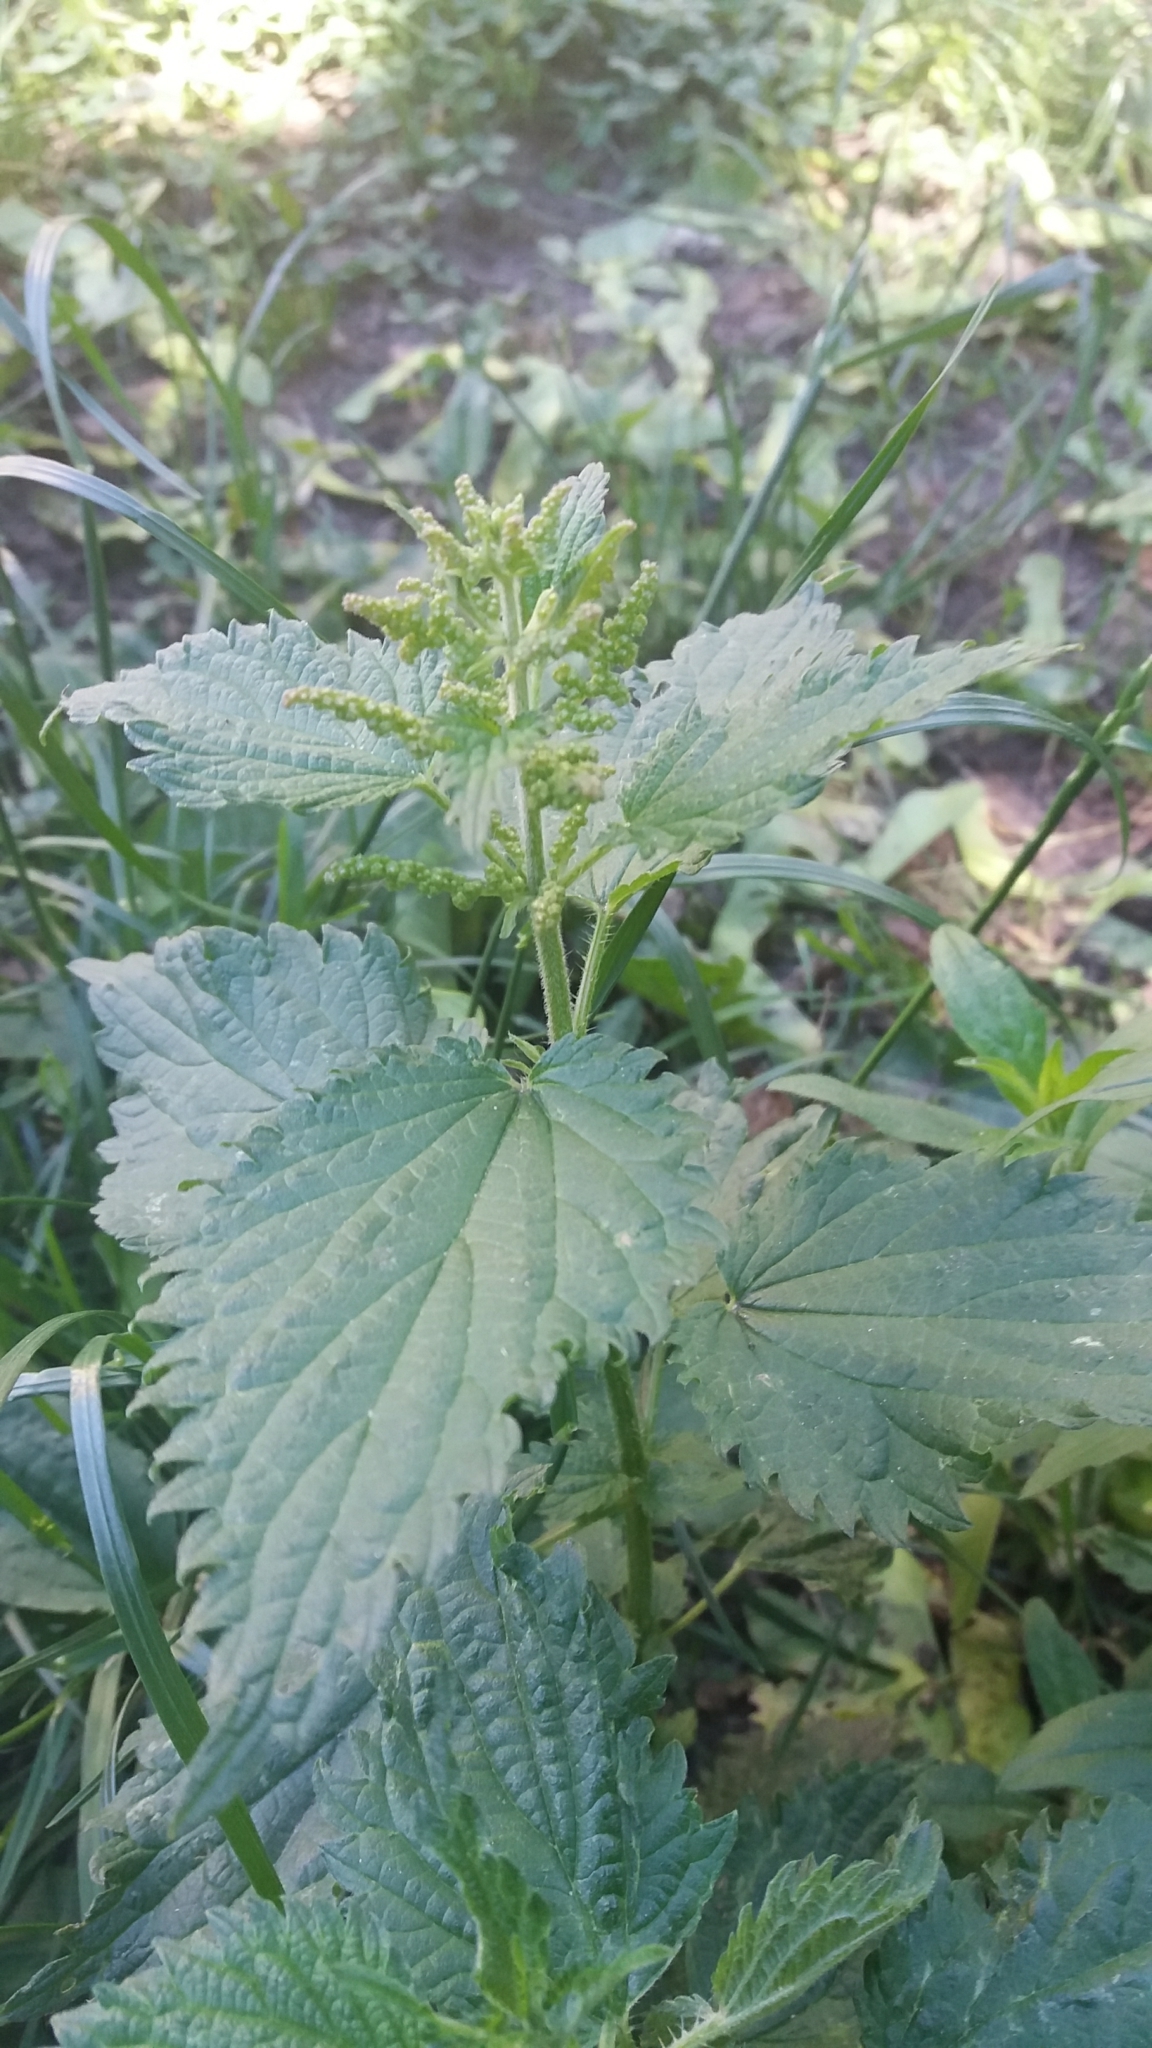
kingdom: Plantae
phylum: Tracheophyta
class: Magnoliopsida
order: Rosales
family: Urticaceae
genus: Urtica
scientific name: Urtica dioica
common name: Common nettle
